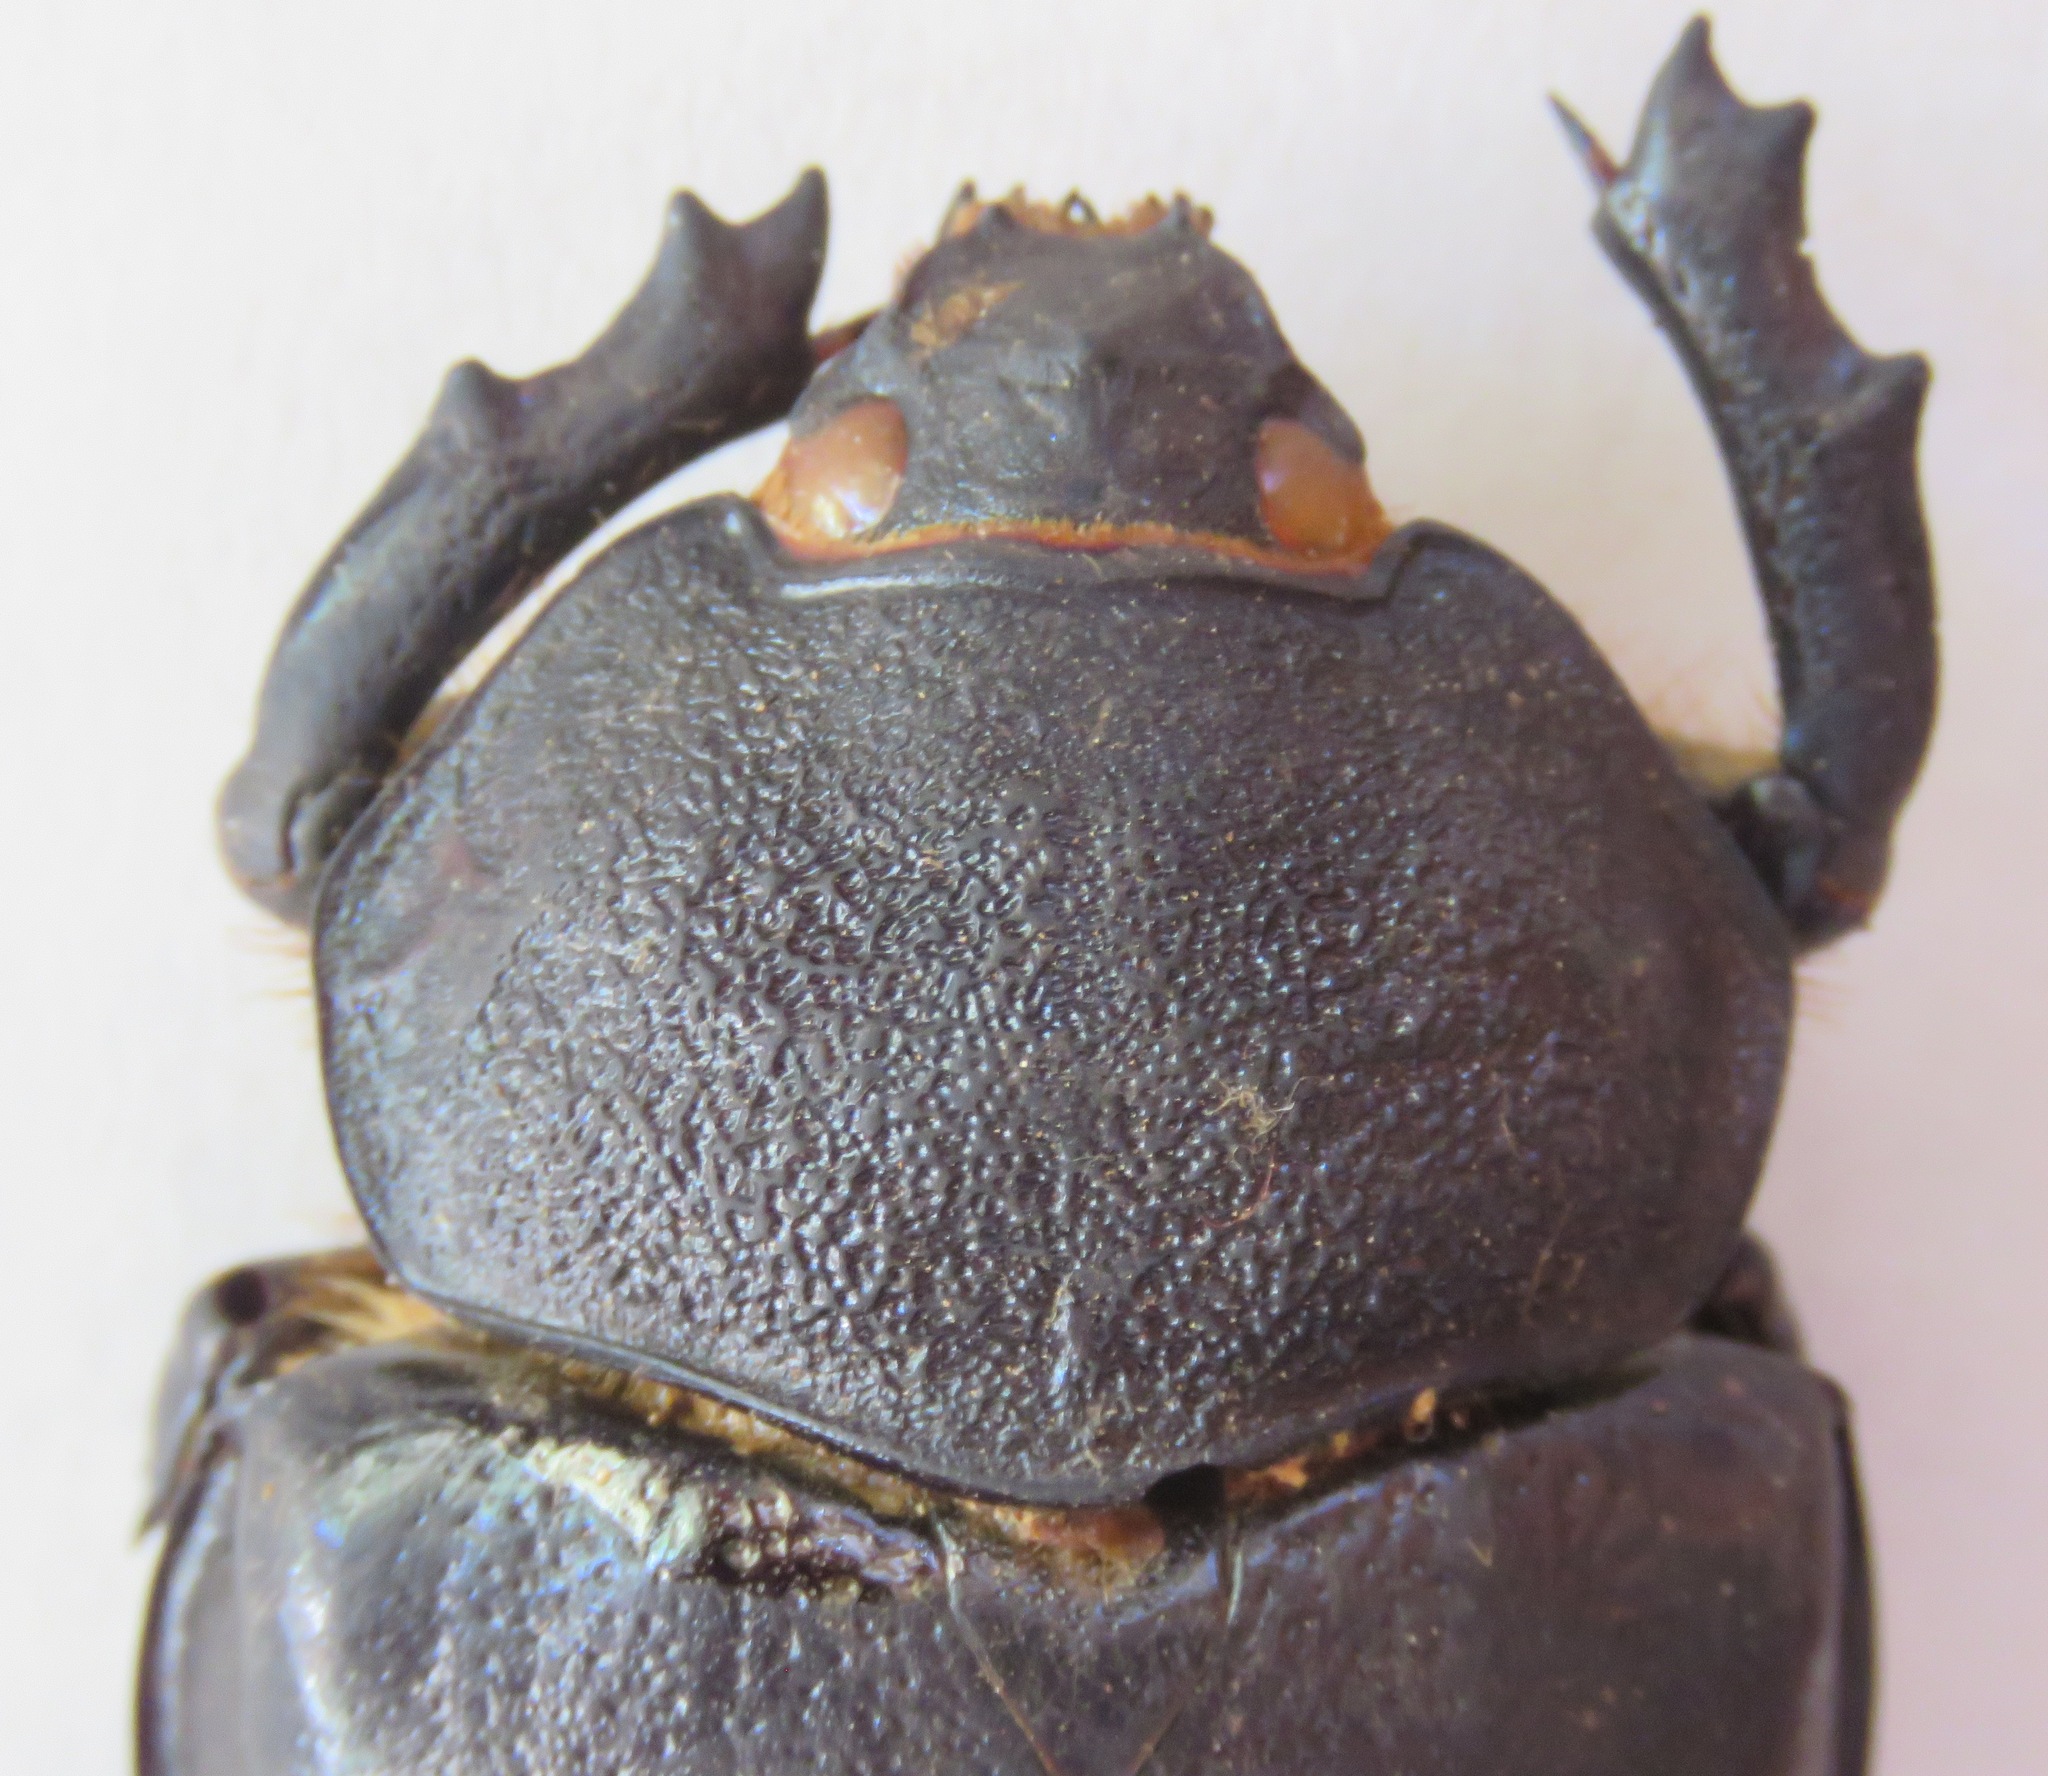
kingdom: Animalia
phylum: Arthropoda
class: Insecta
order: Coleoptera
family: Scarabaeidae
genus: Megasoma
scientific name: Megasoma occidentale
